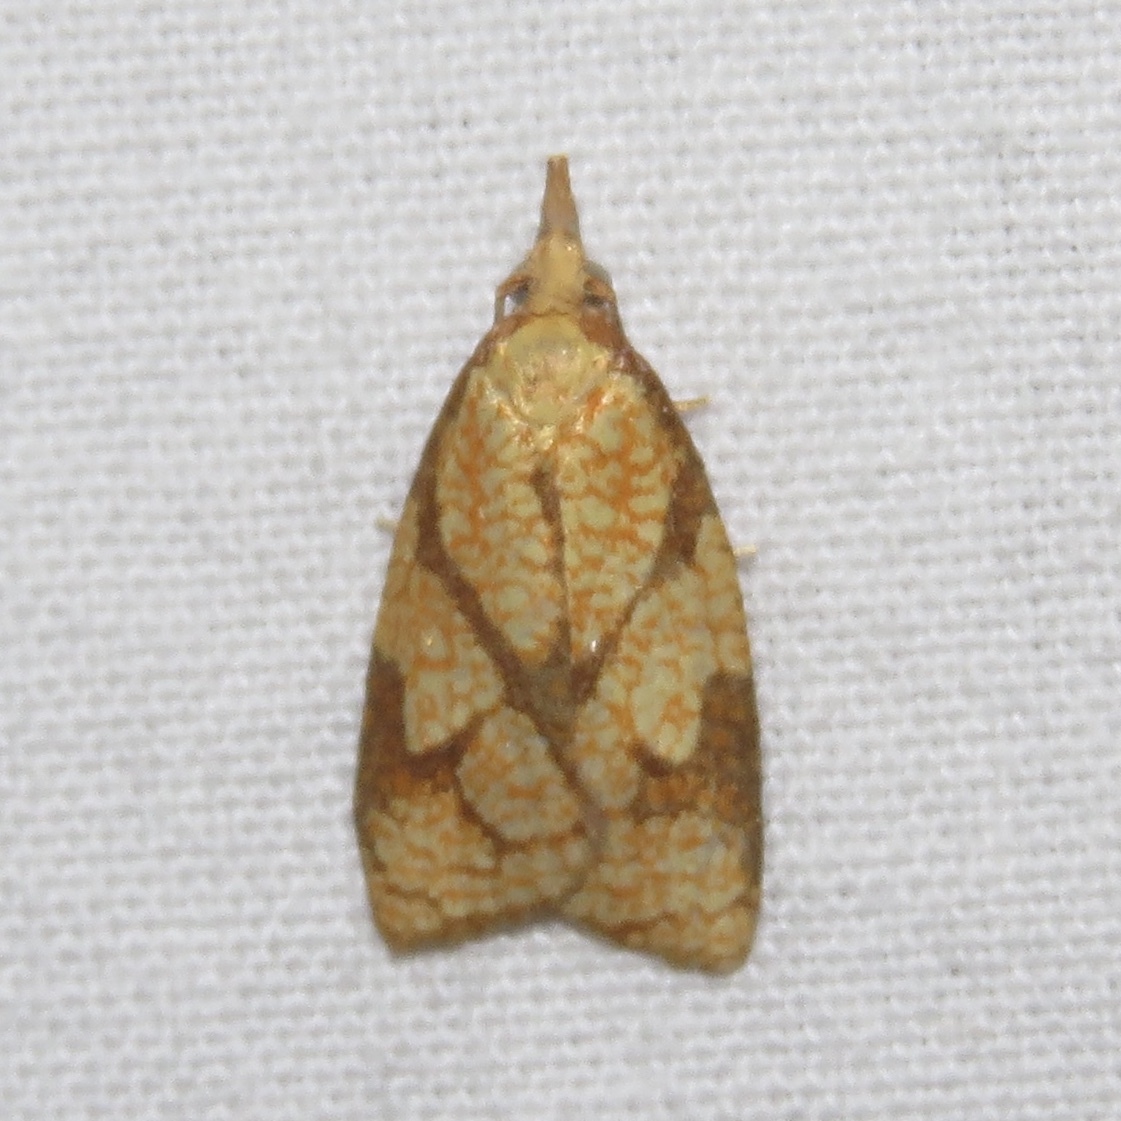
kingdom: Animalia
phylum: Arthropoda
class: Insecta
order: Lepidoptera
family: Tortricidae
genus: Cenopis
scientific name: Cenopis reticulatana
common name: Reticulated fruitworm moth
